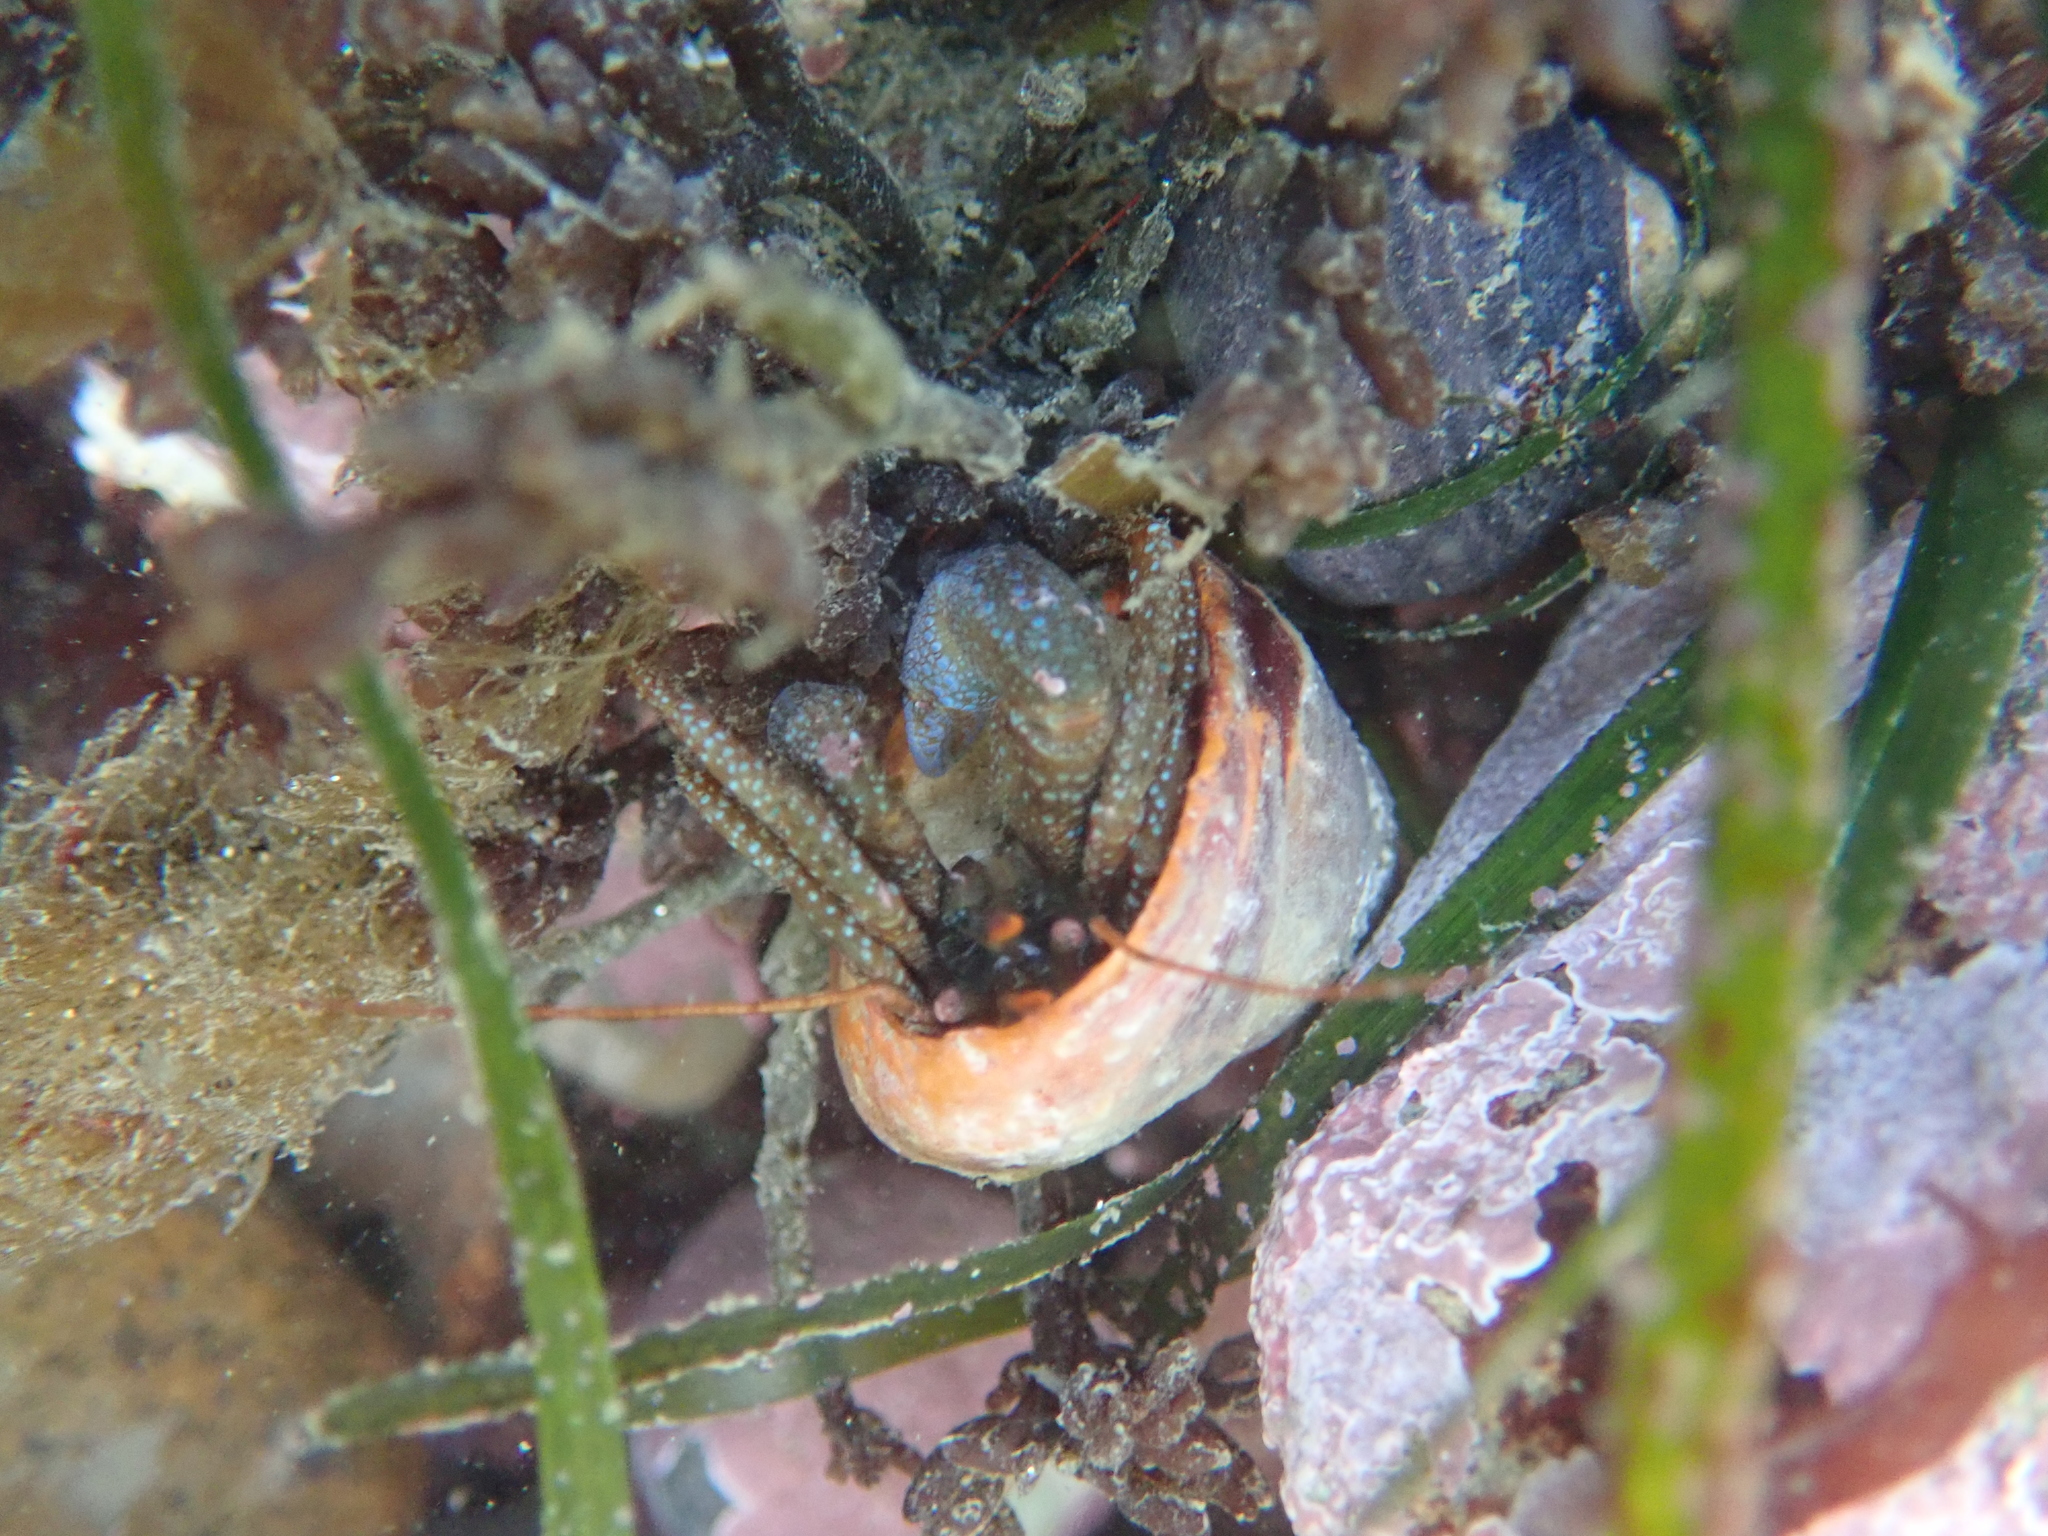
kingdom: Animalia
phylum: Arthropoda
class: Malacostraca
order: Decapoda
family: Paguridae
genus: Pagurus
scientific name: Pagurus granosimanus
